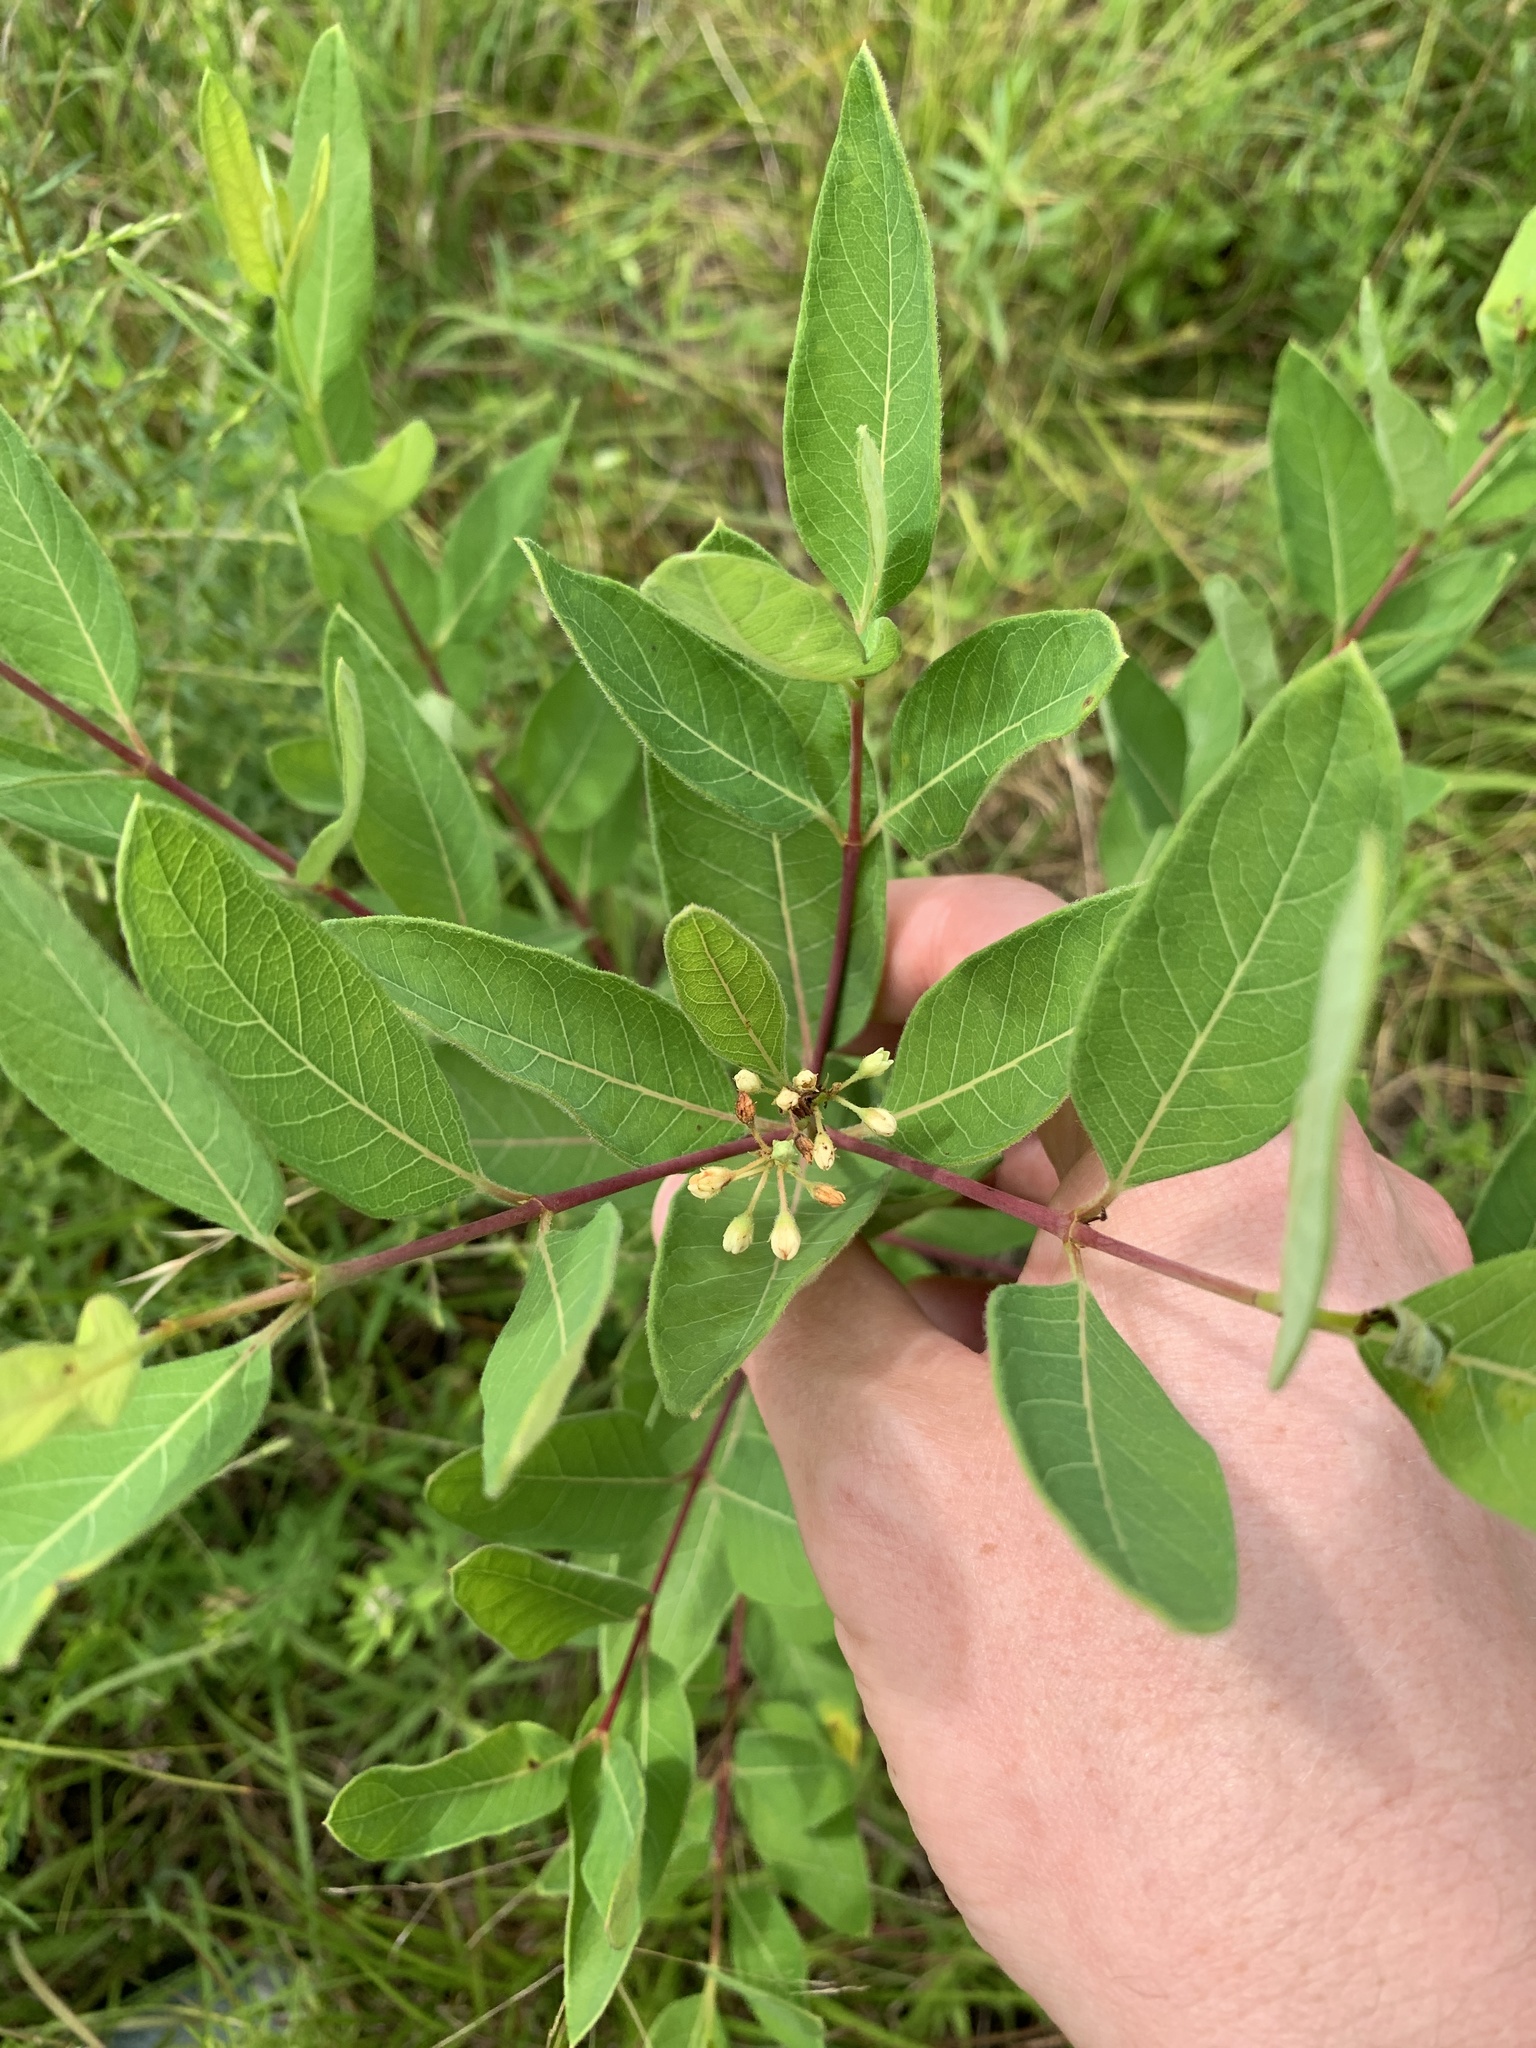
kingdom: Plantae
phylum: Tracheophyta
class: Magnoliopsida
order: Gentianales
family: Apocynaceae
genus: Apocynum
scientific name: Apocynum cannabinum
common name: Hemp dogbane
